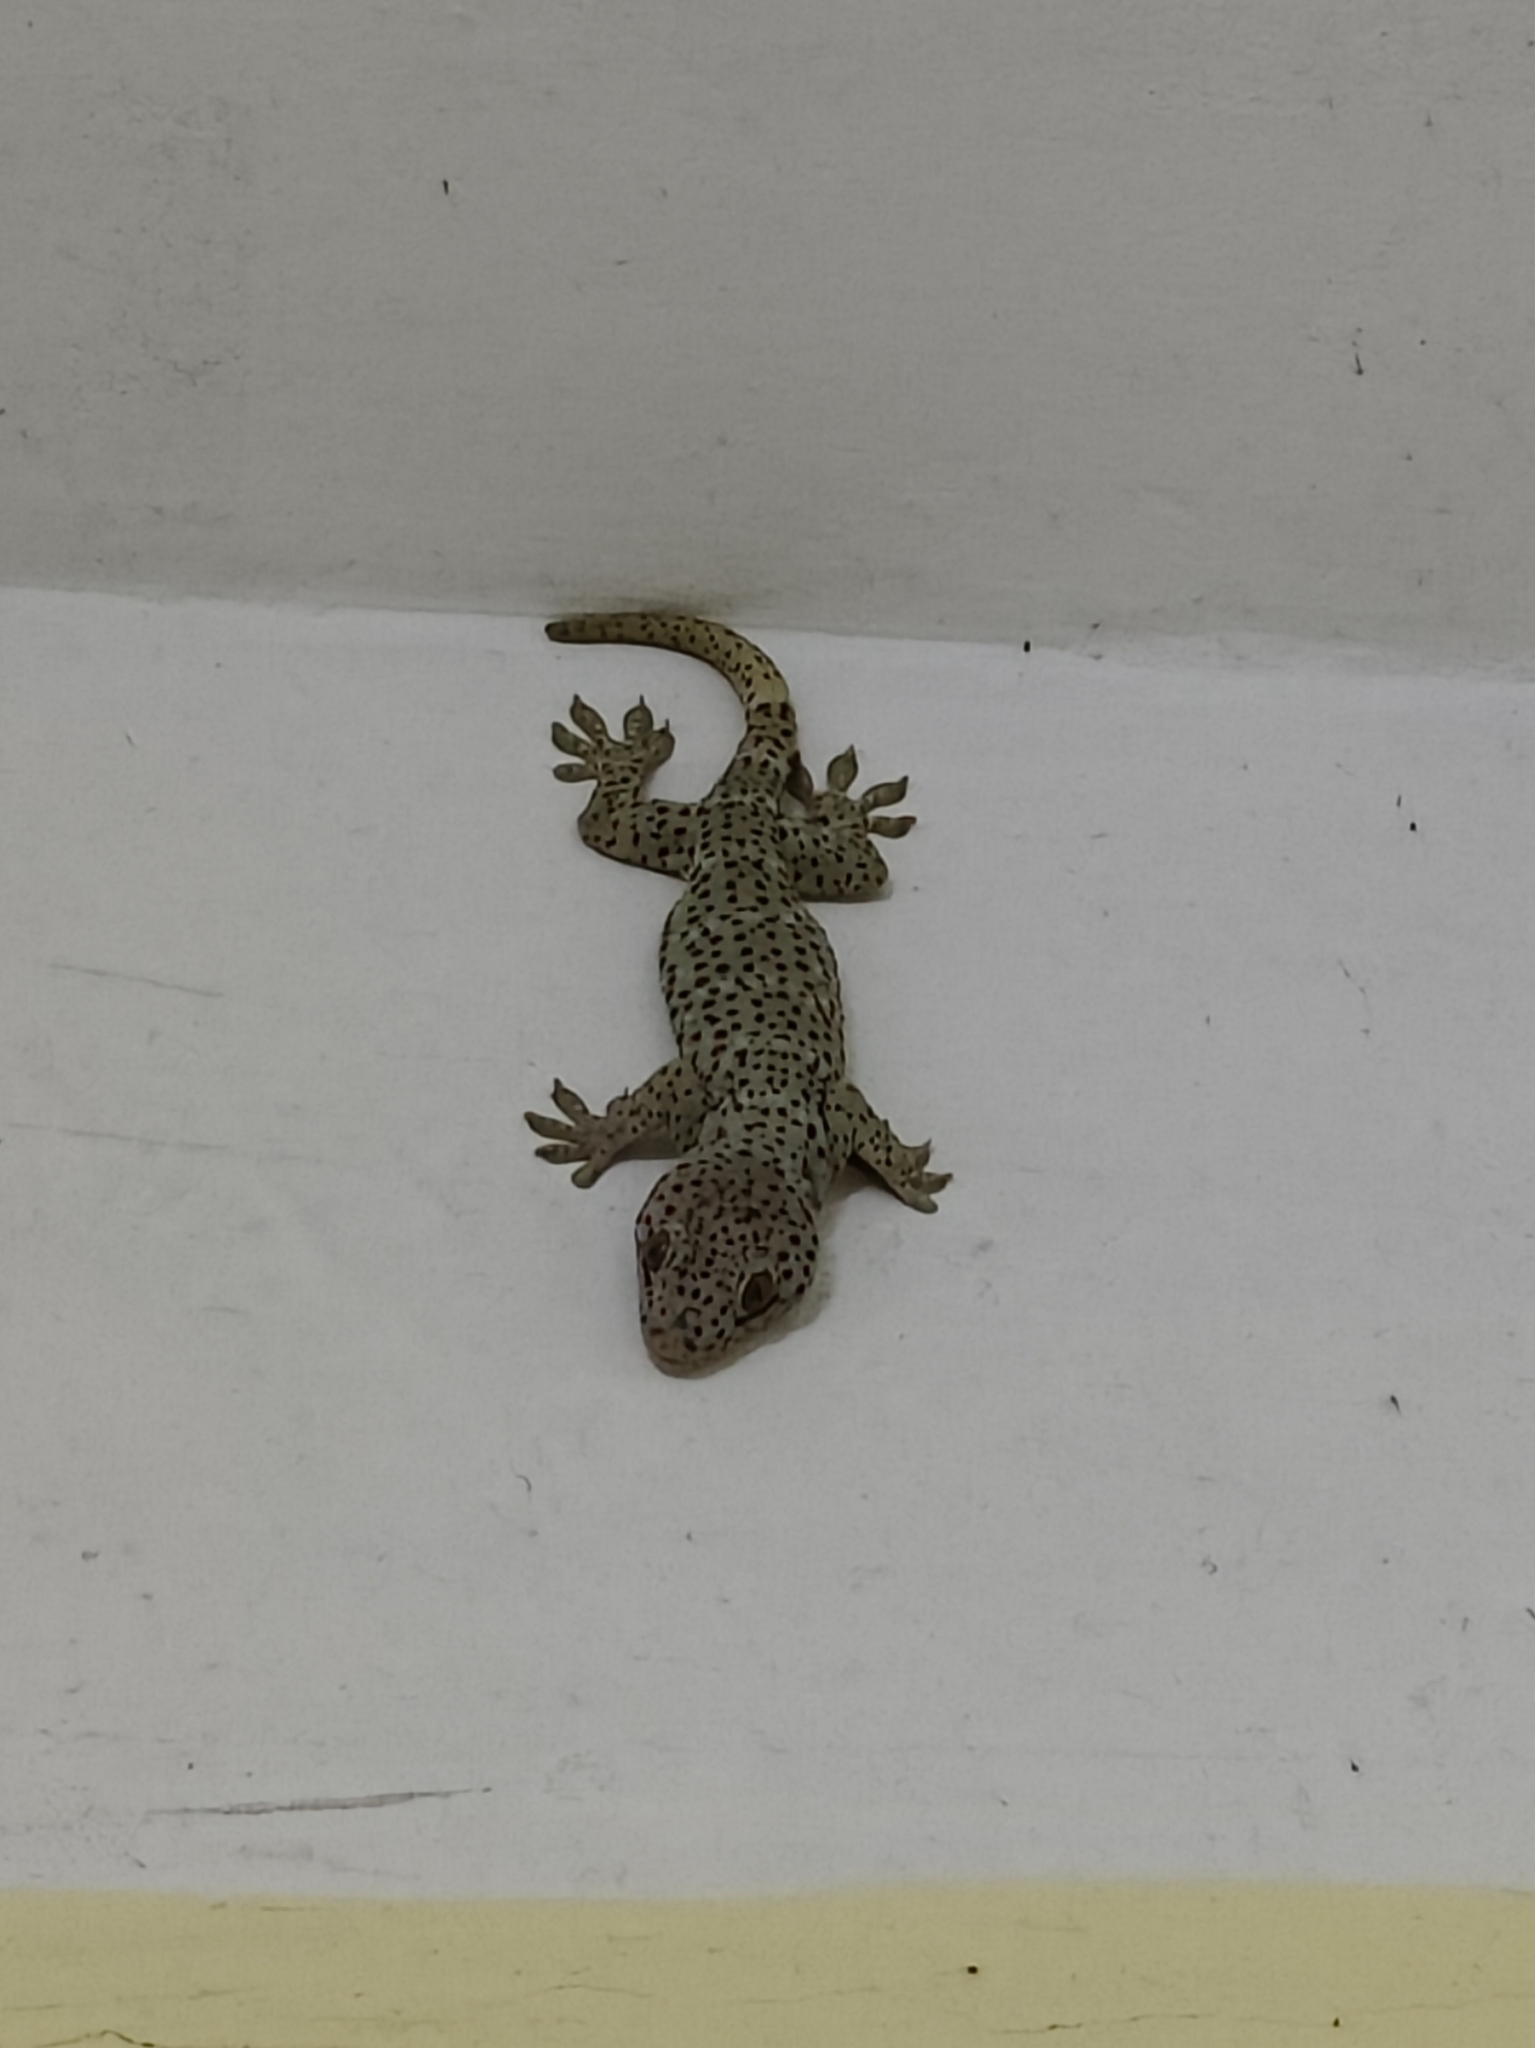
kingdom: Animalia
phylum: Chordata
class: Squamata
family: Gekkonidae
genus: Gekko
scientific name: Gekko gecko
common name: Tokay gecko
